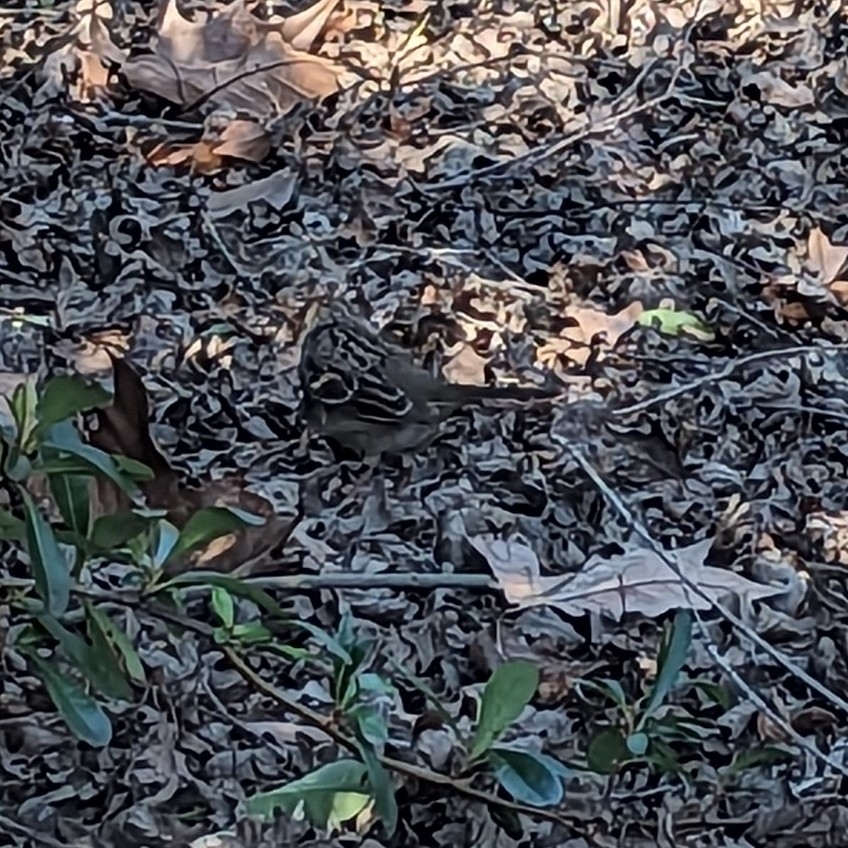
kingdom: Animalia
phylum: Chordata
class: Aves
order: Passeriformes
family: Passerellidae
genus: Zonotrichia
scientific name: Zonotrichia atricapilla
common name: Golden-crowned sparrow
